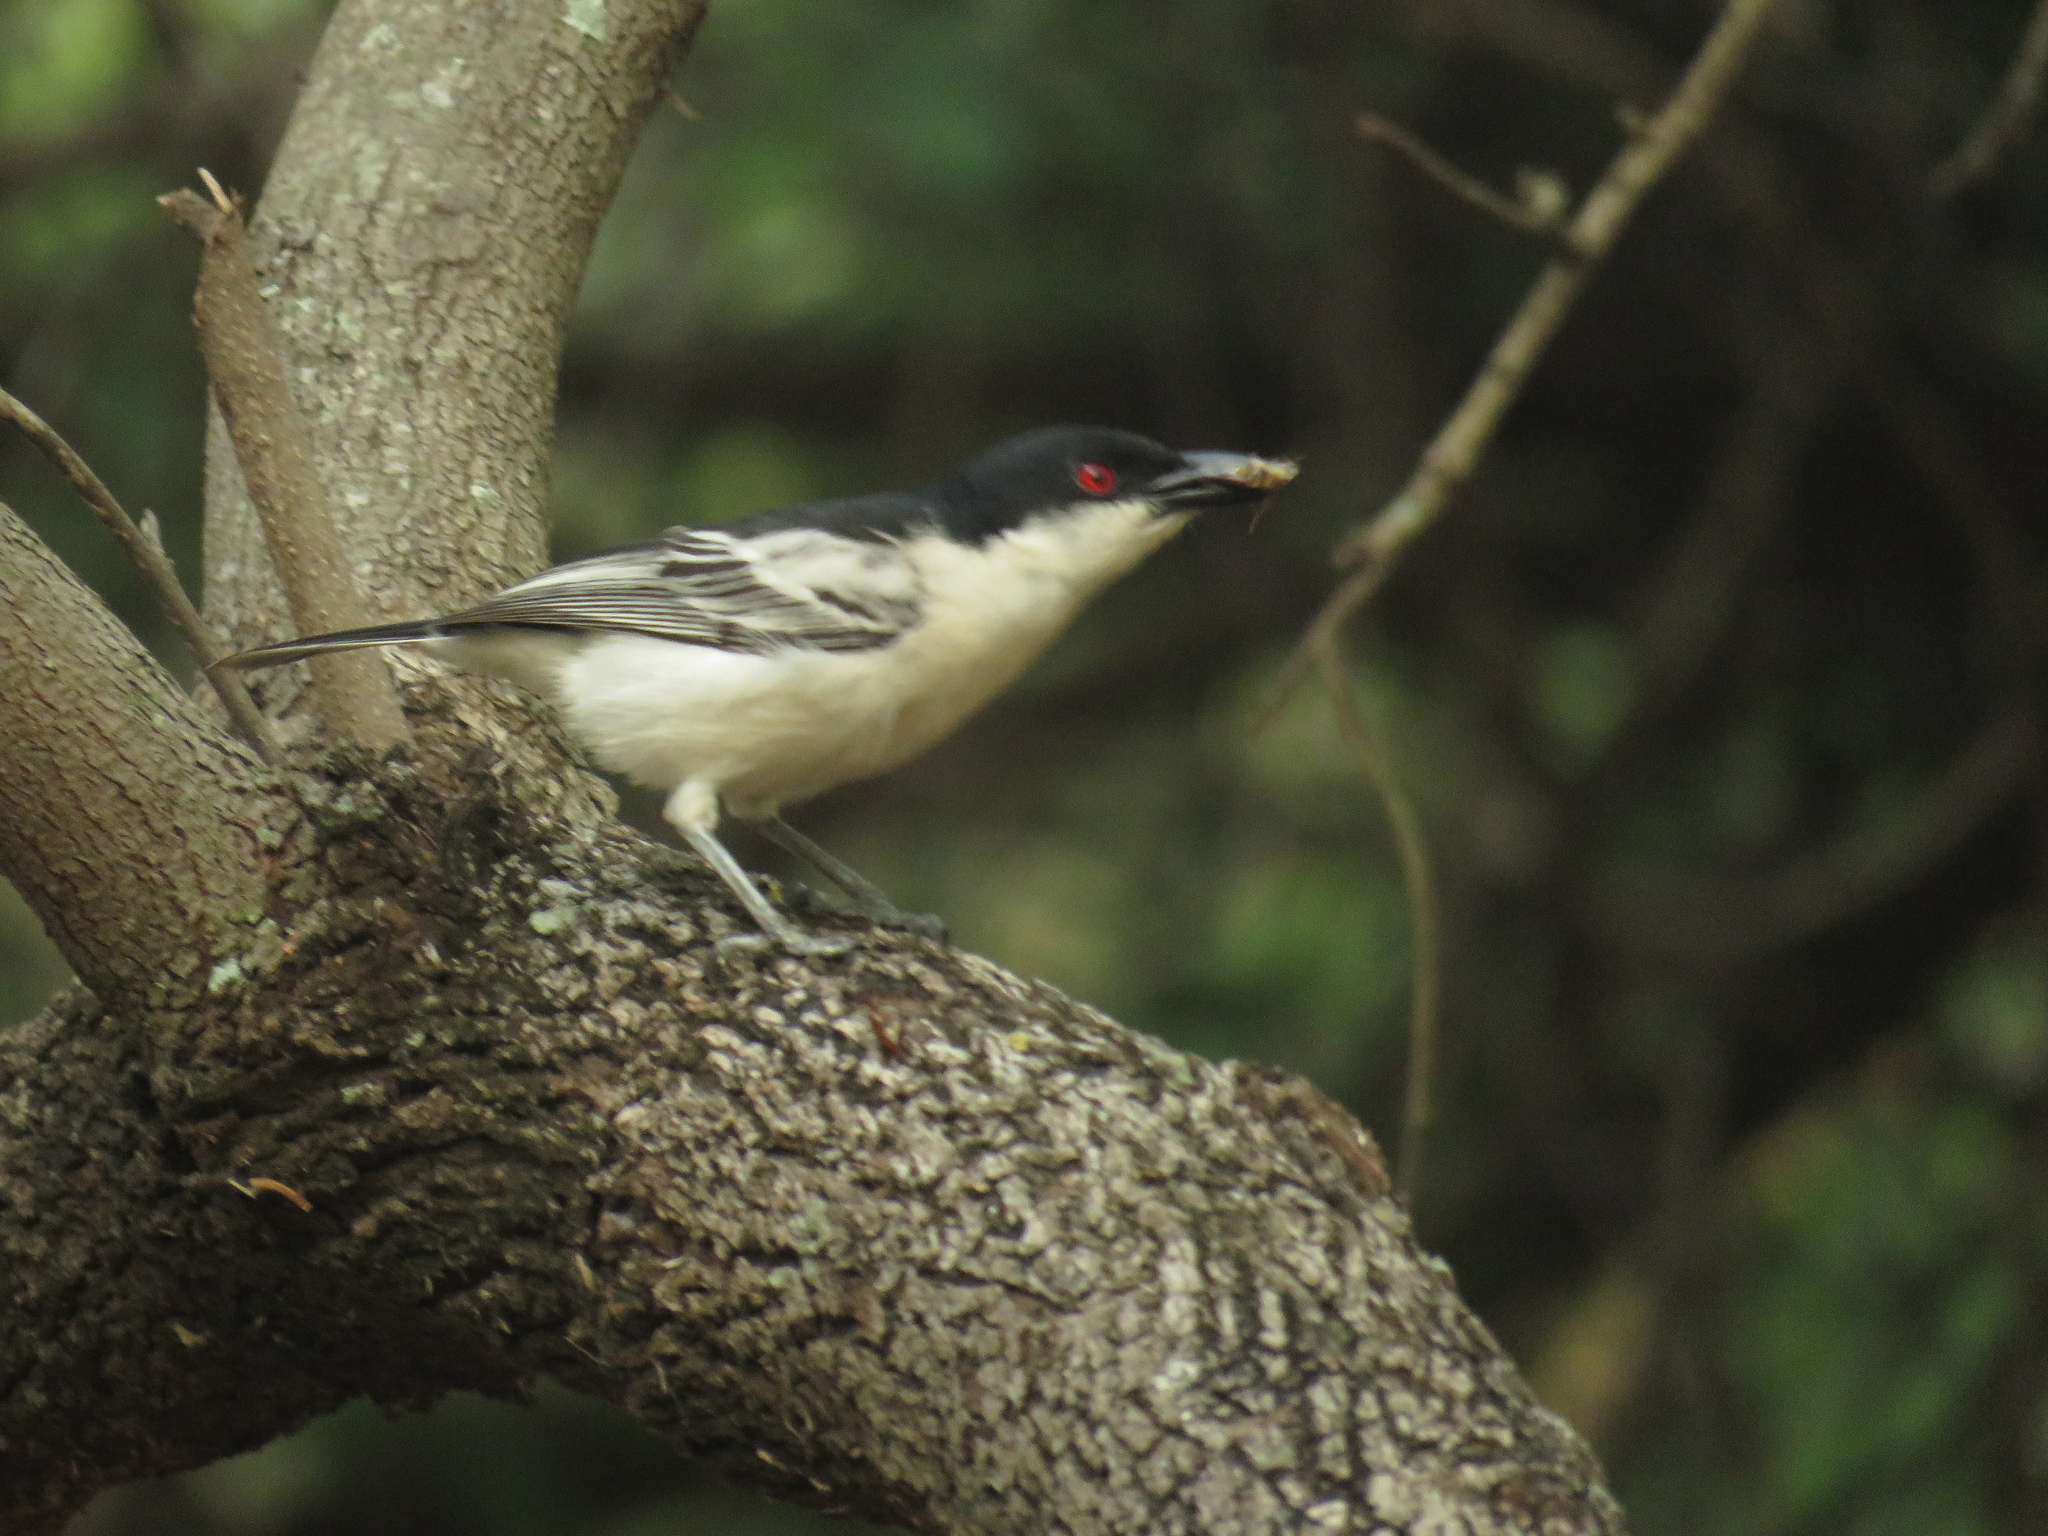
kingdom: Animalia
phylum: Chordata
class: Aves
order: Passeriformes
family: Malaconotidae
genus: Dryoscopus
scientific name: Dryoscopus cubla
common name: Black-backed puffback
